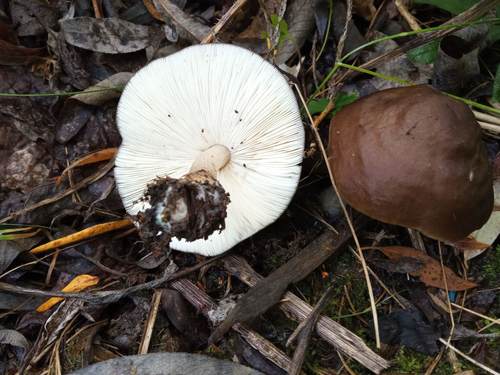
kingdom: Fungi
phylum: Basidiomycota
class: Agaricomycetes
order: Agaricales
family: Pluteaceae
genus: Pluteus
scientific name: Pluteus cervinus
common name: Deer shield
